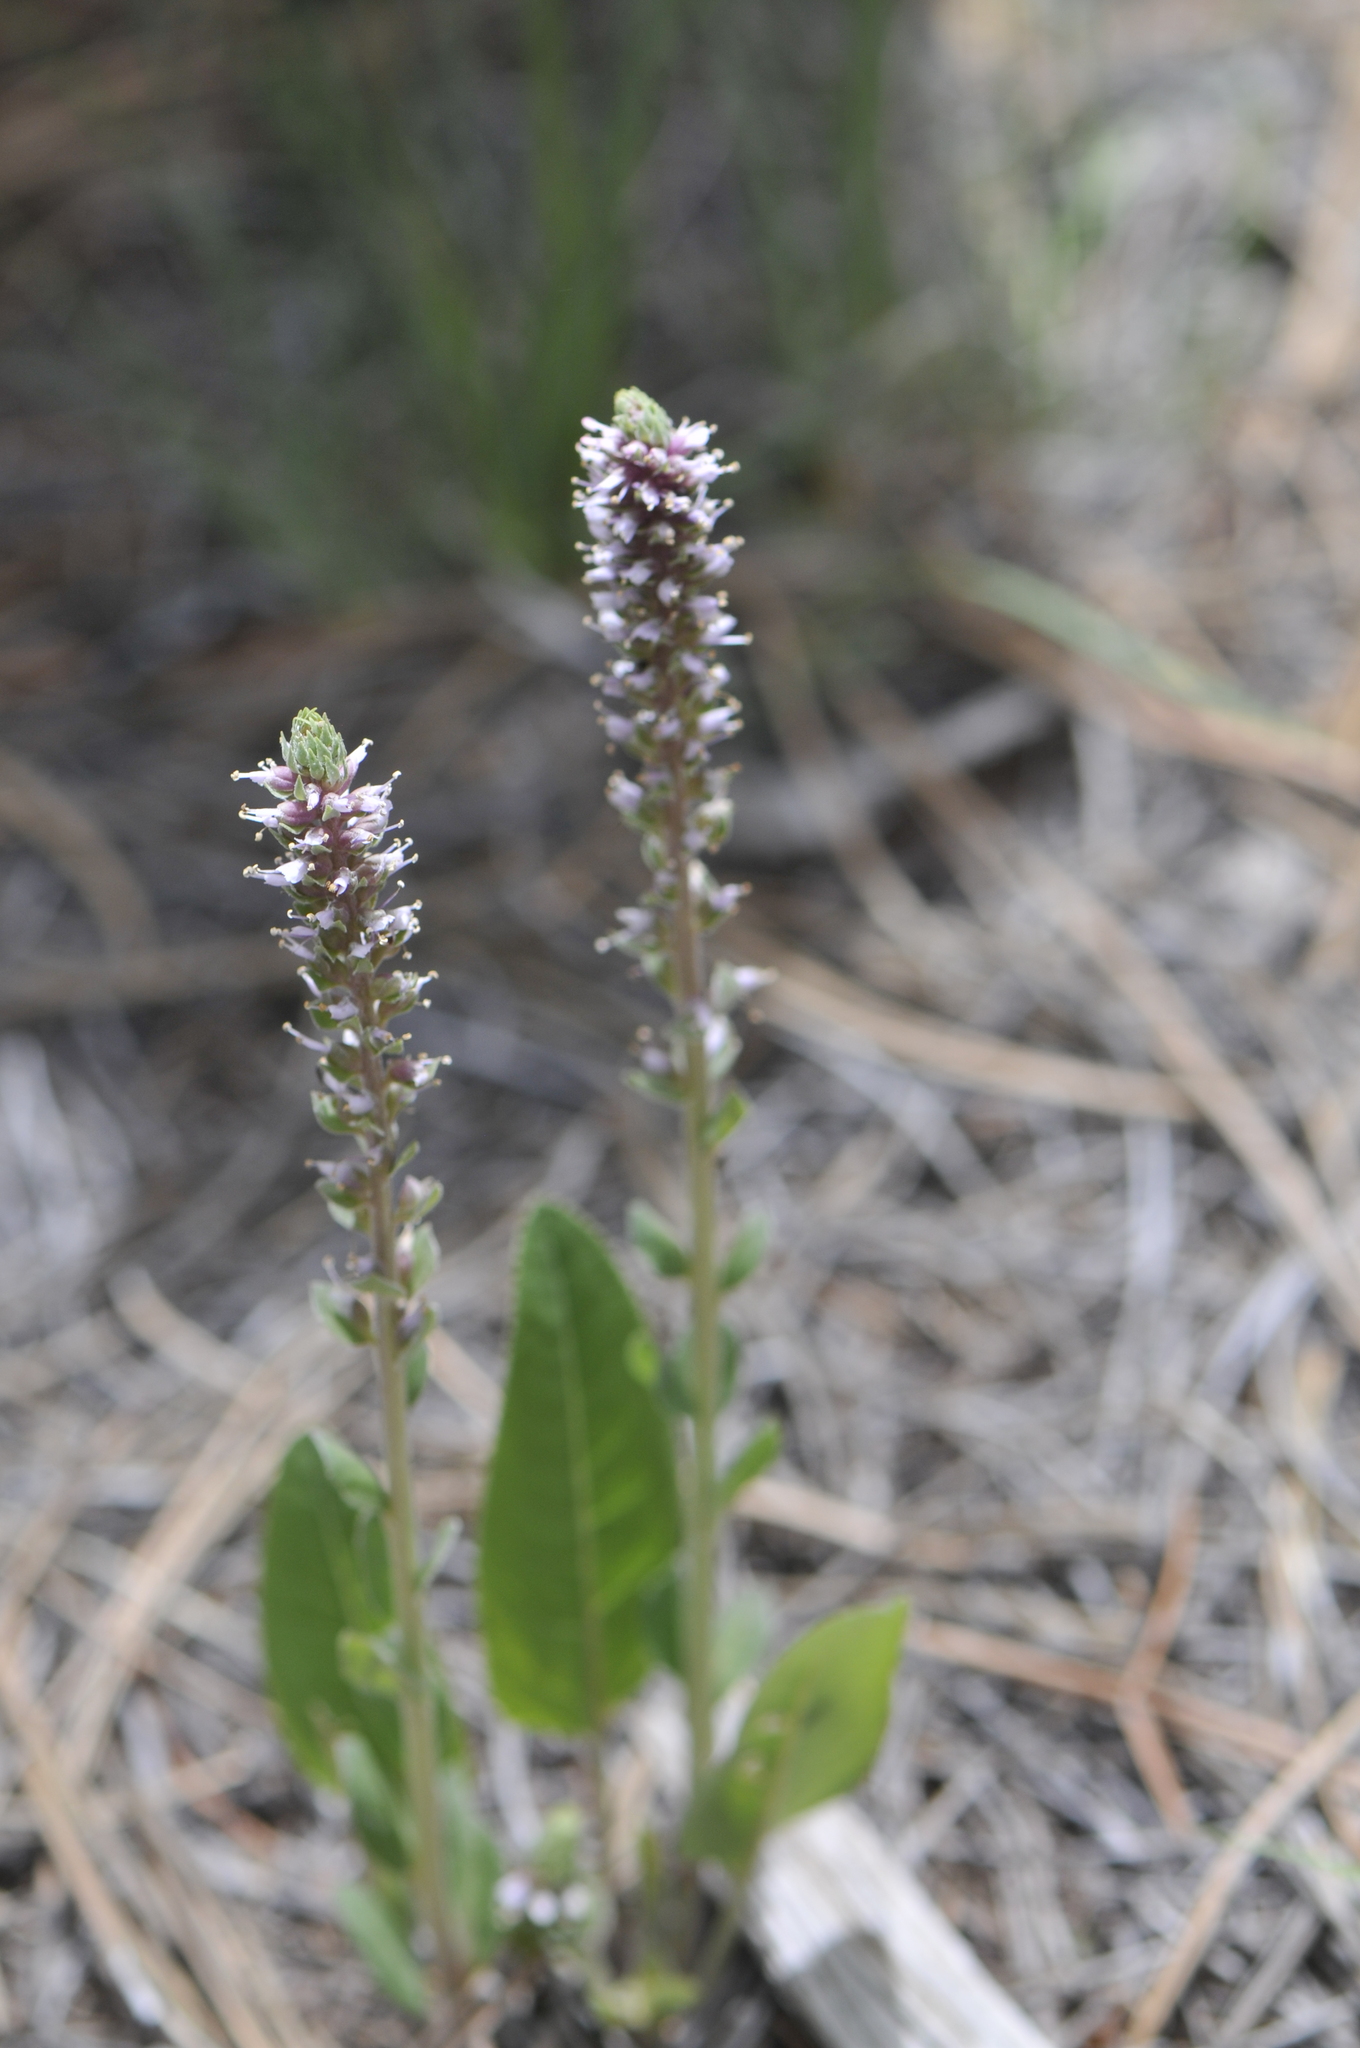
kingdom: Plantae
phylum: Tracheophyta
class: Magnoliopsida
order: Lamiales
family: Plantaginaceae
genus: Veronica
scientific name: Veronica plantaginea
